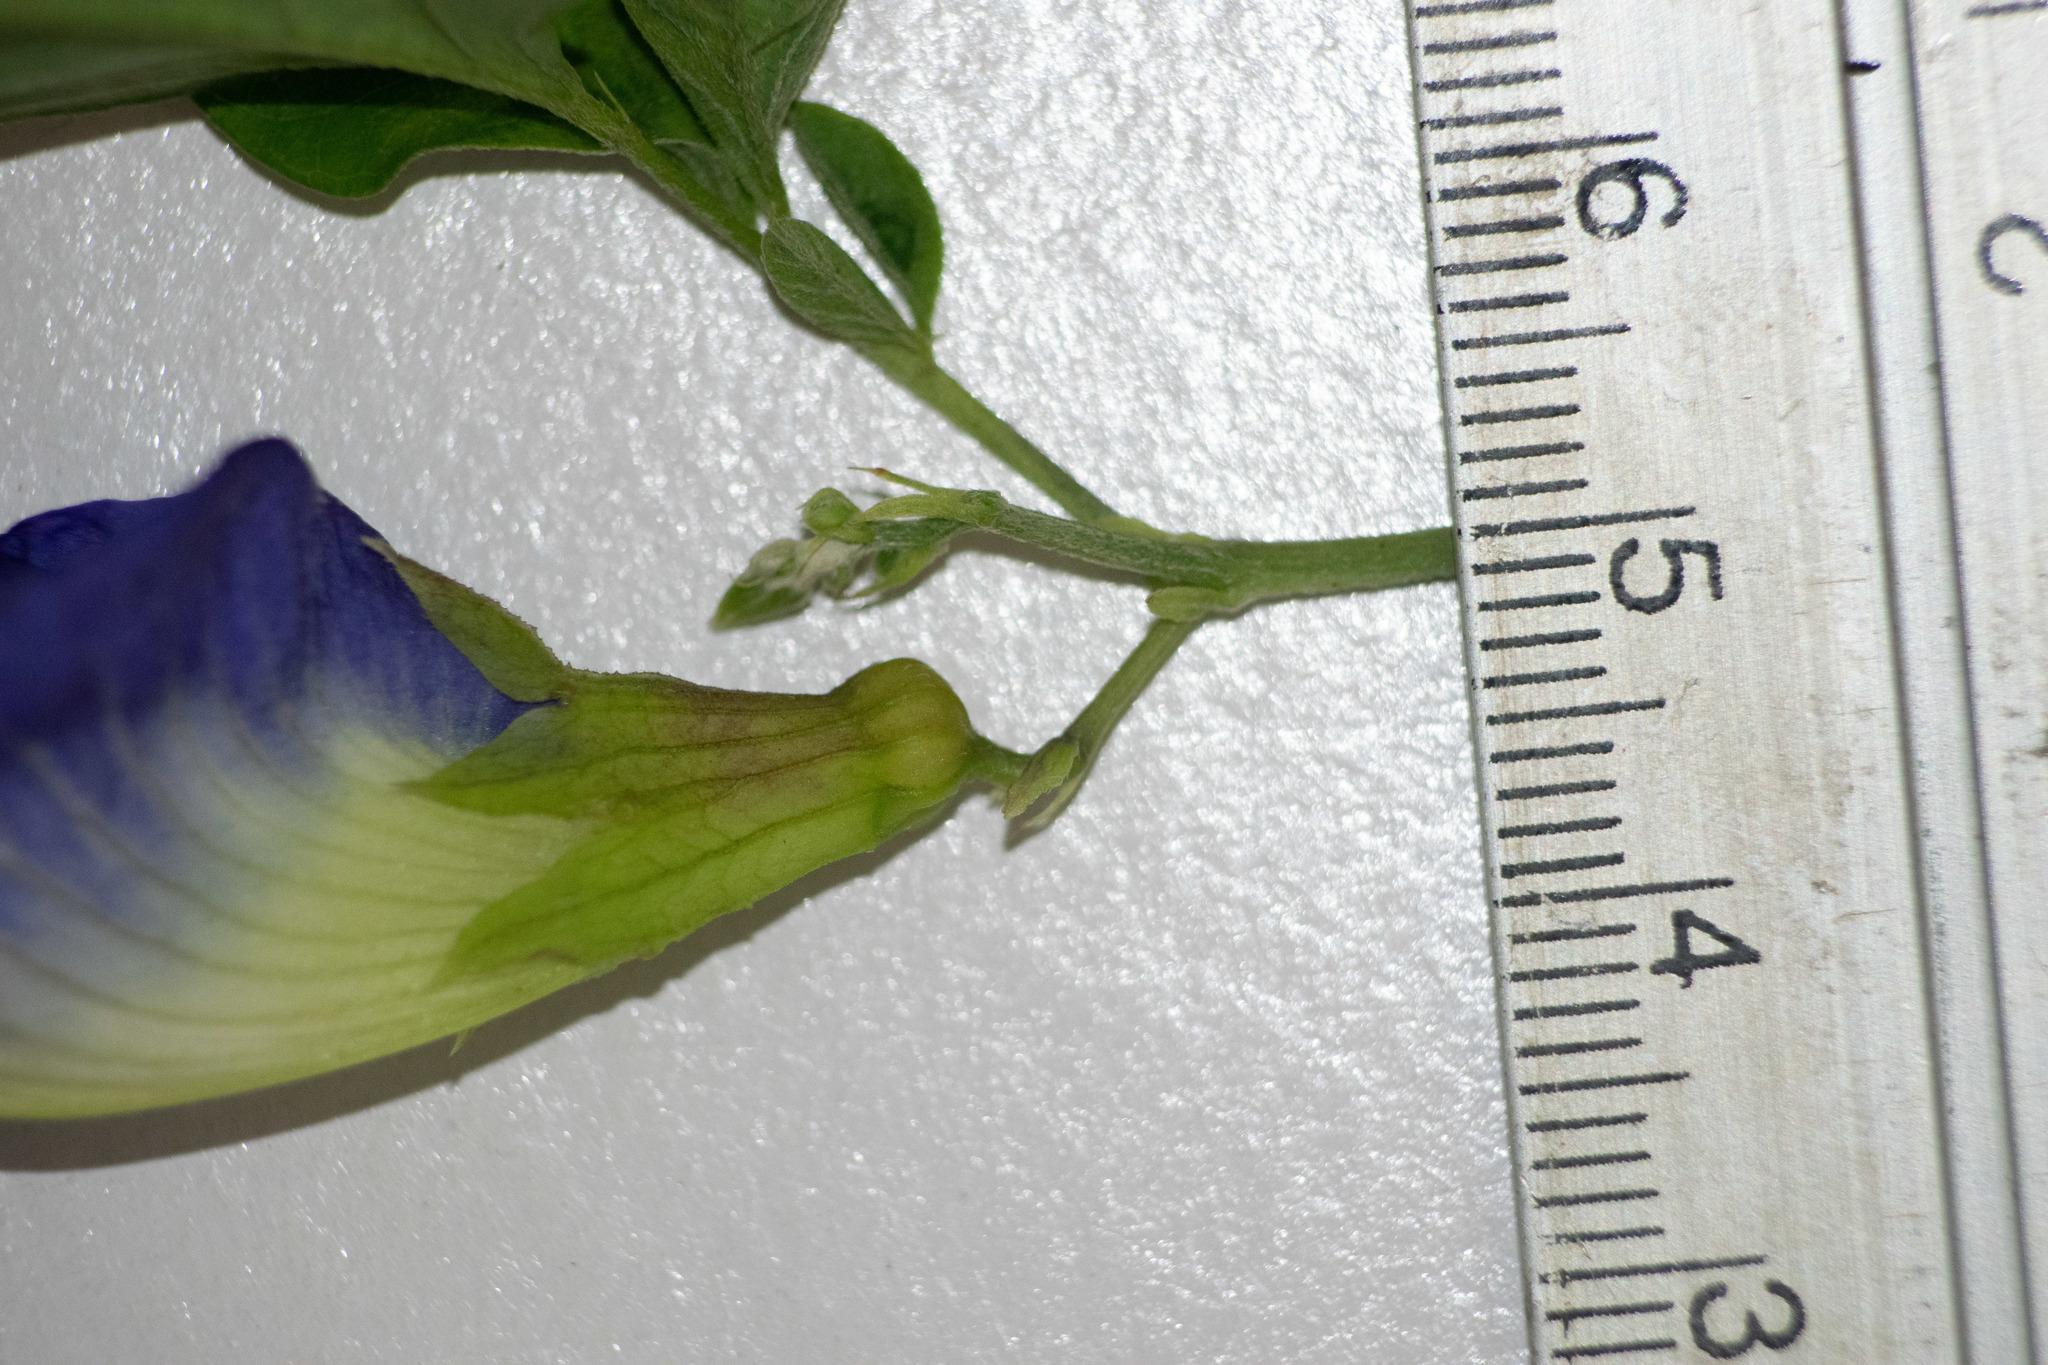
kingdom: Plantae
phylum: Tracheophyta
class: Magnoliopsida
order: Fabales
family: Fabaceae
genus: Clitoria
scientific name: Clitoria ternatea
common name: Asian pigeonwings
